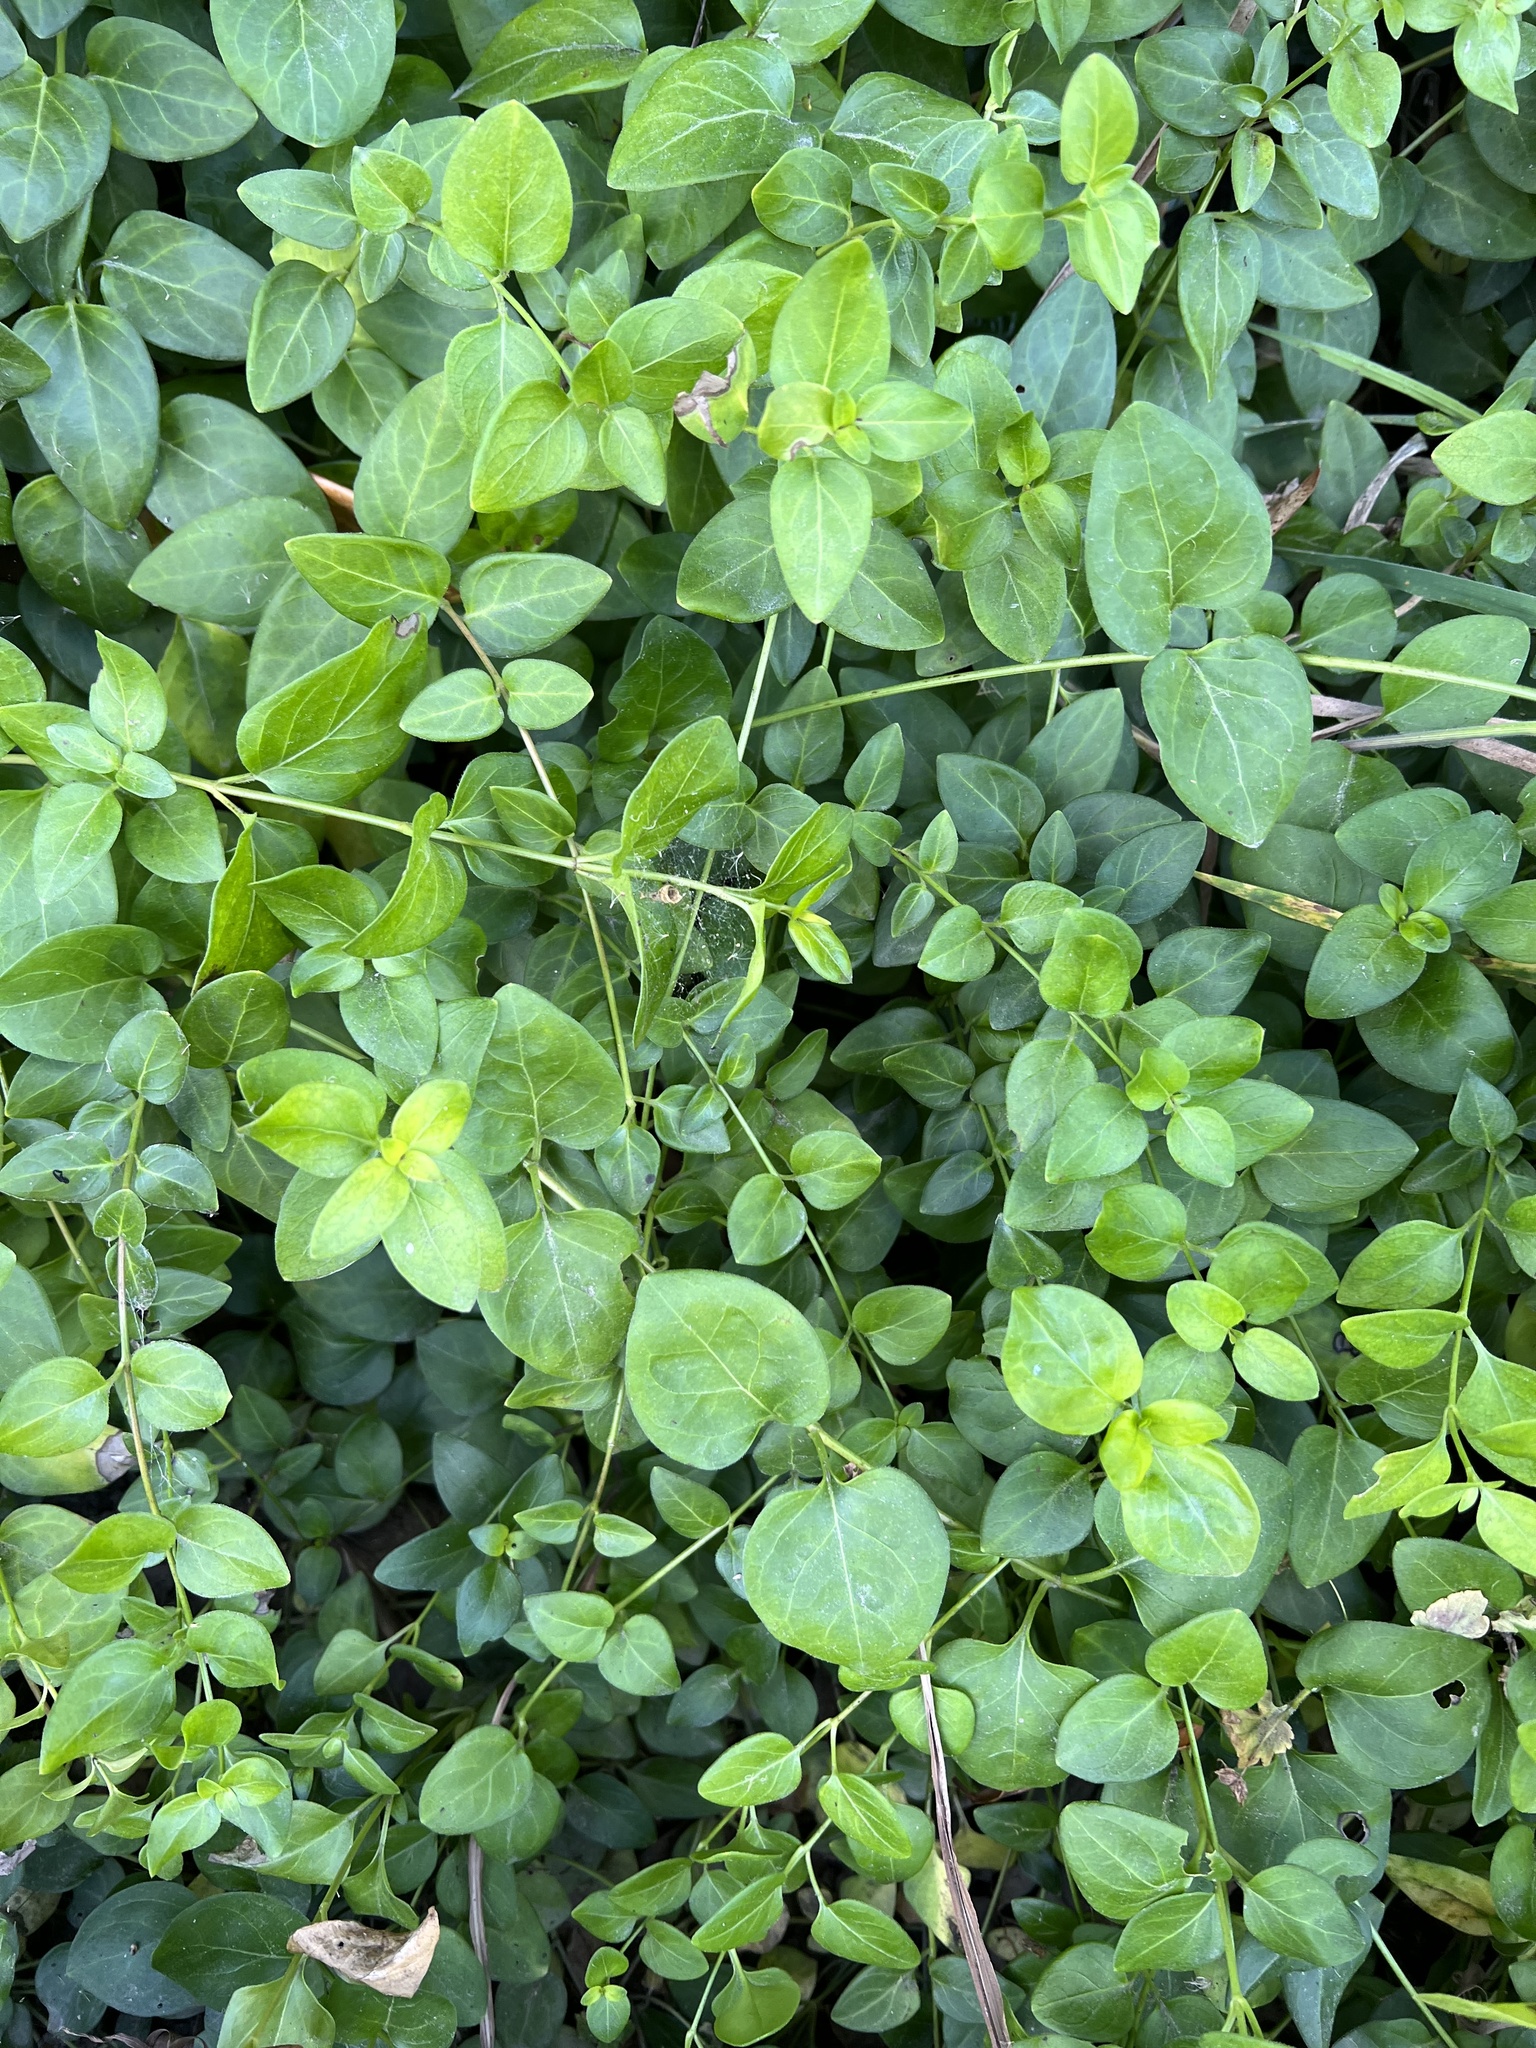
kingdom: Plantae
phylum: Tracheophyta
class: Magnoliopsida
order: Gentianales
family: Apocynaceae
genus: Vinca
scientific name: Vinca major
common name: Greater periwinkle
